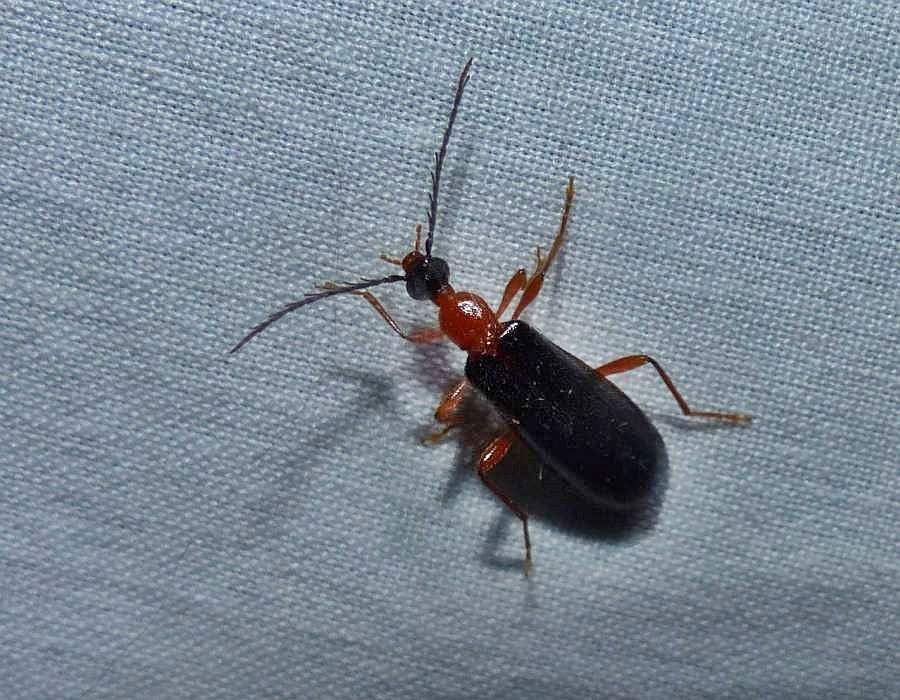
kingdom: Animalia
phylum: Arthropoda
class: Insecta
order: Coleoptera
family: Pyrochroidae
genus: Dendroides
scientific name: Dendroides canadensis
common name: Canada fire-colored beetle
